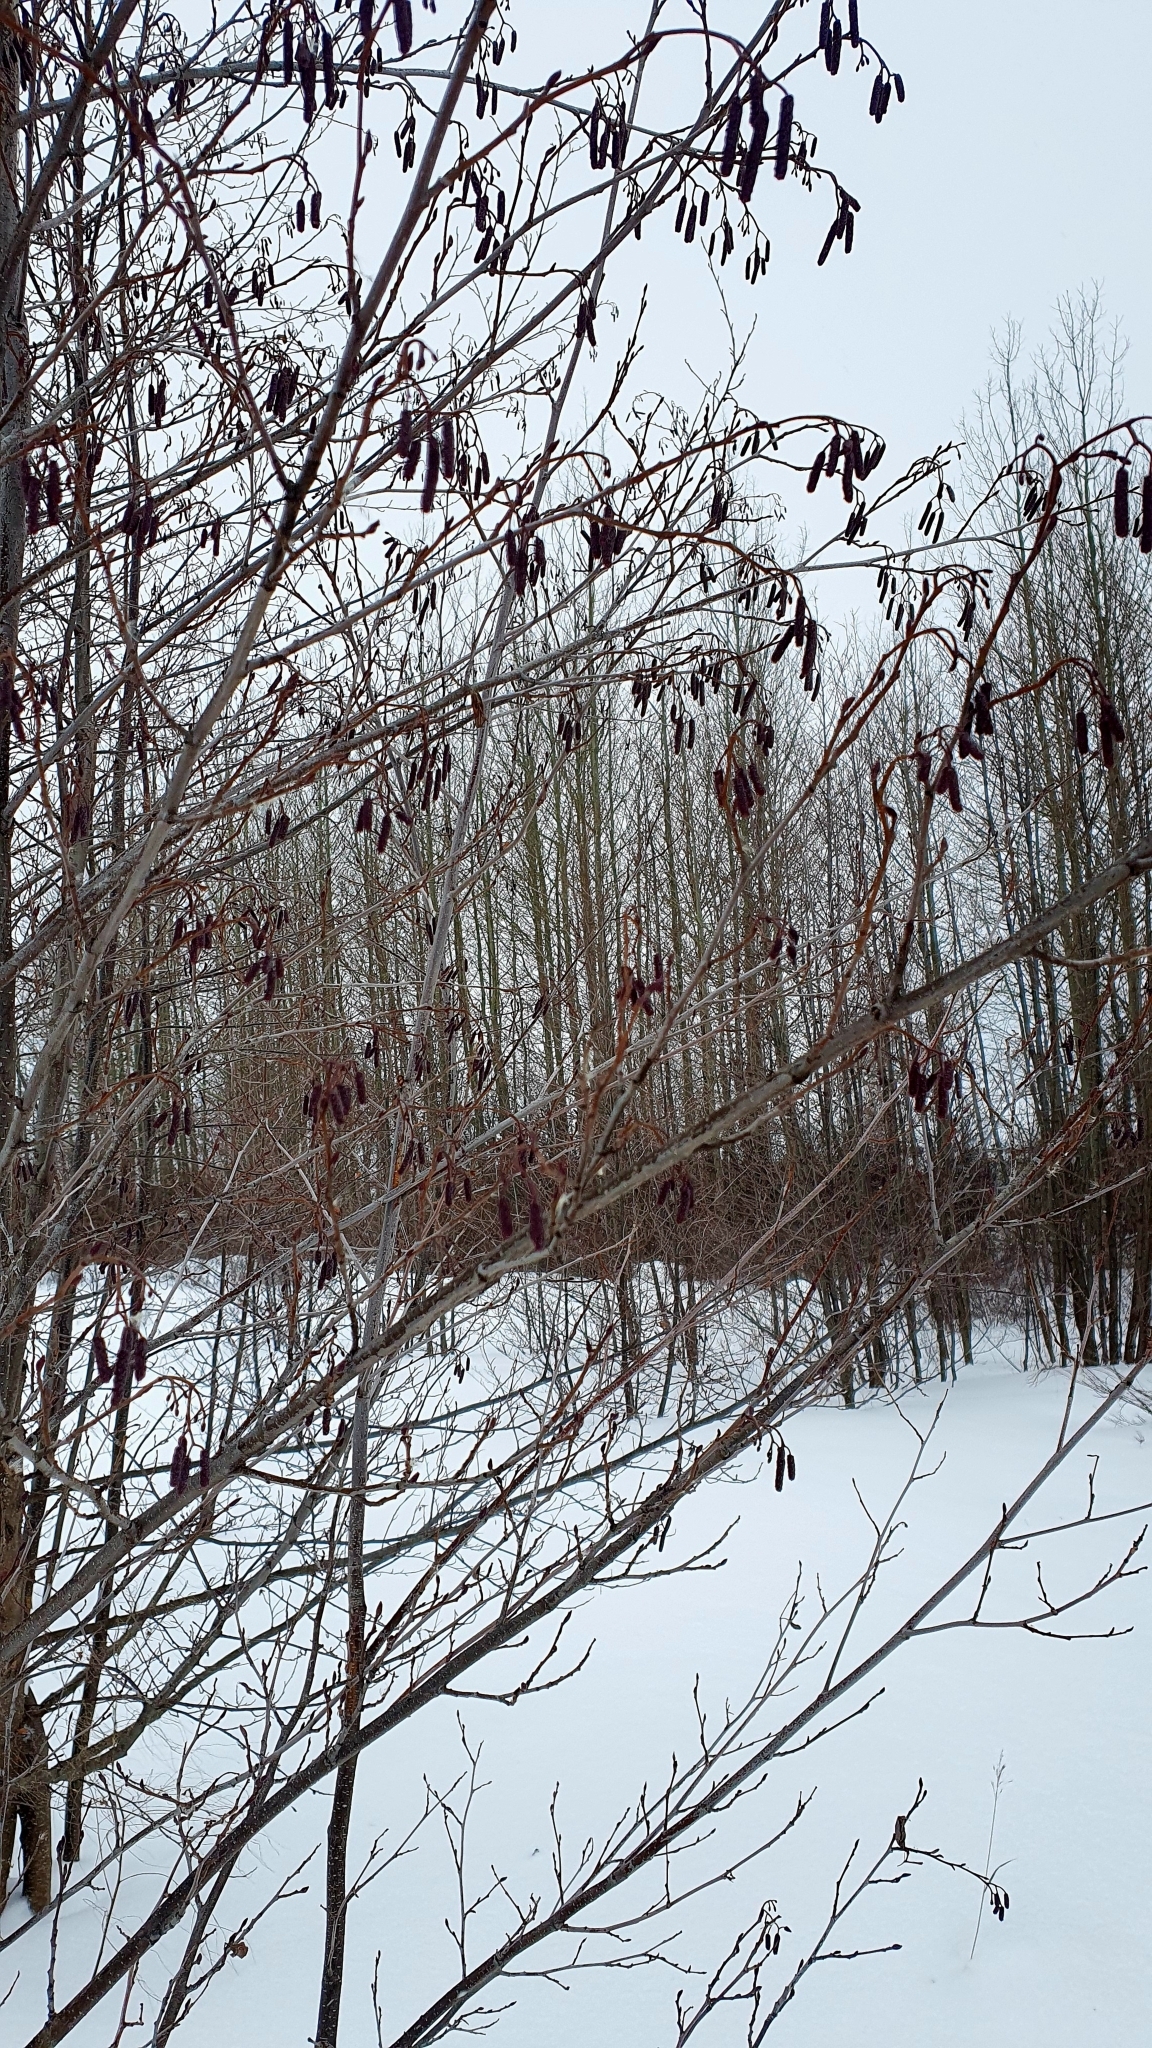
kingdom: Plantae
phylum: Tracheophyta
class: Magnoliopsida
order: Fagales
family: Betulaceae
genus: Alnus
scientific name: Alnus glutinosa
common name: Black alder
